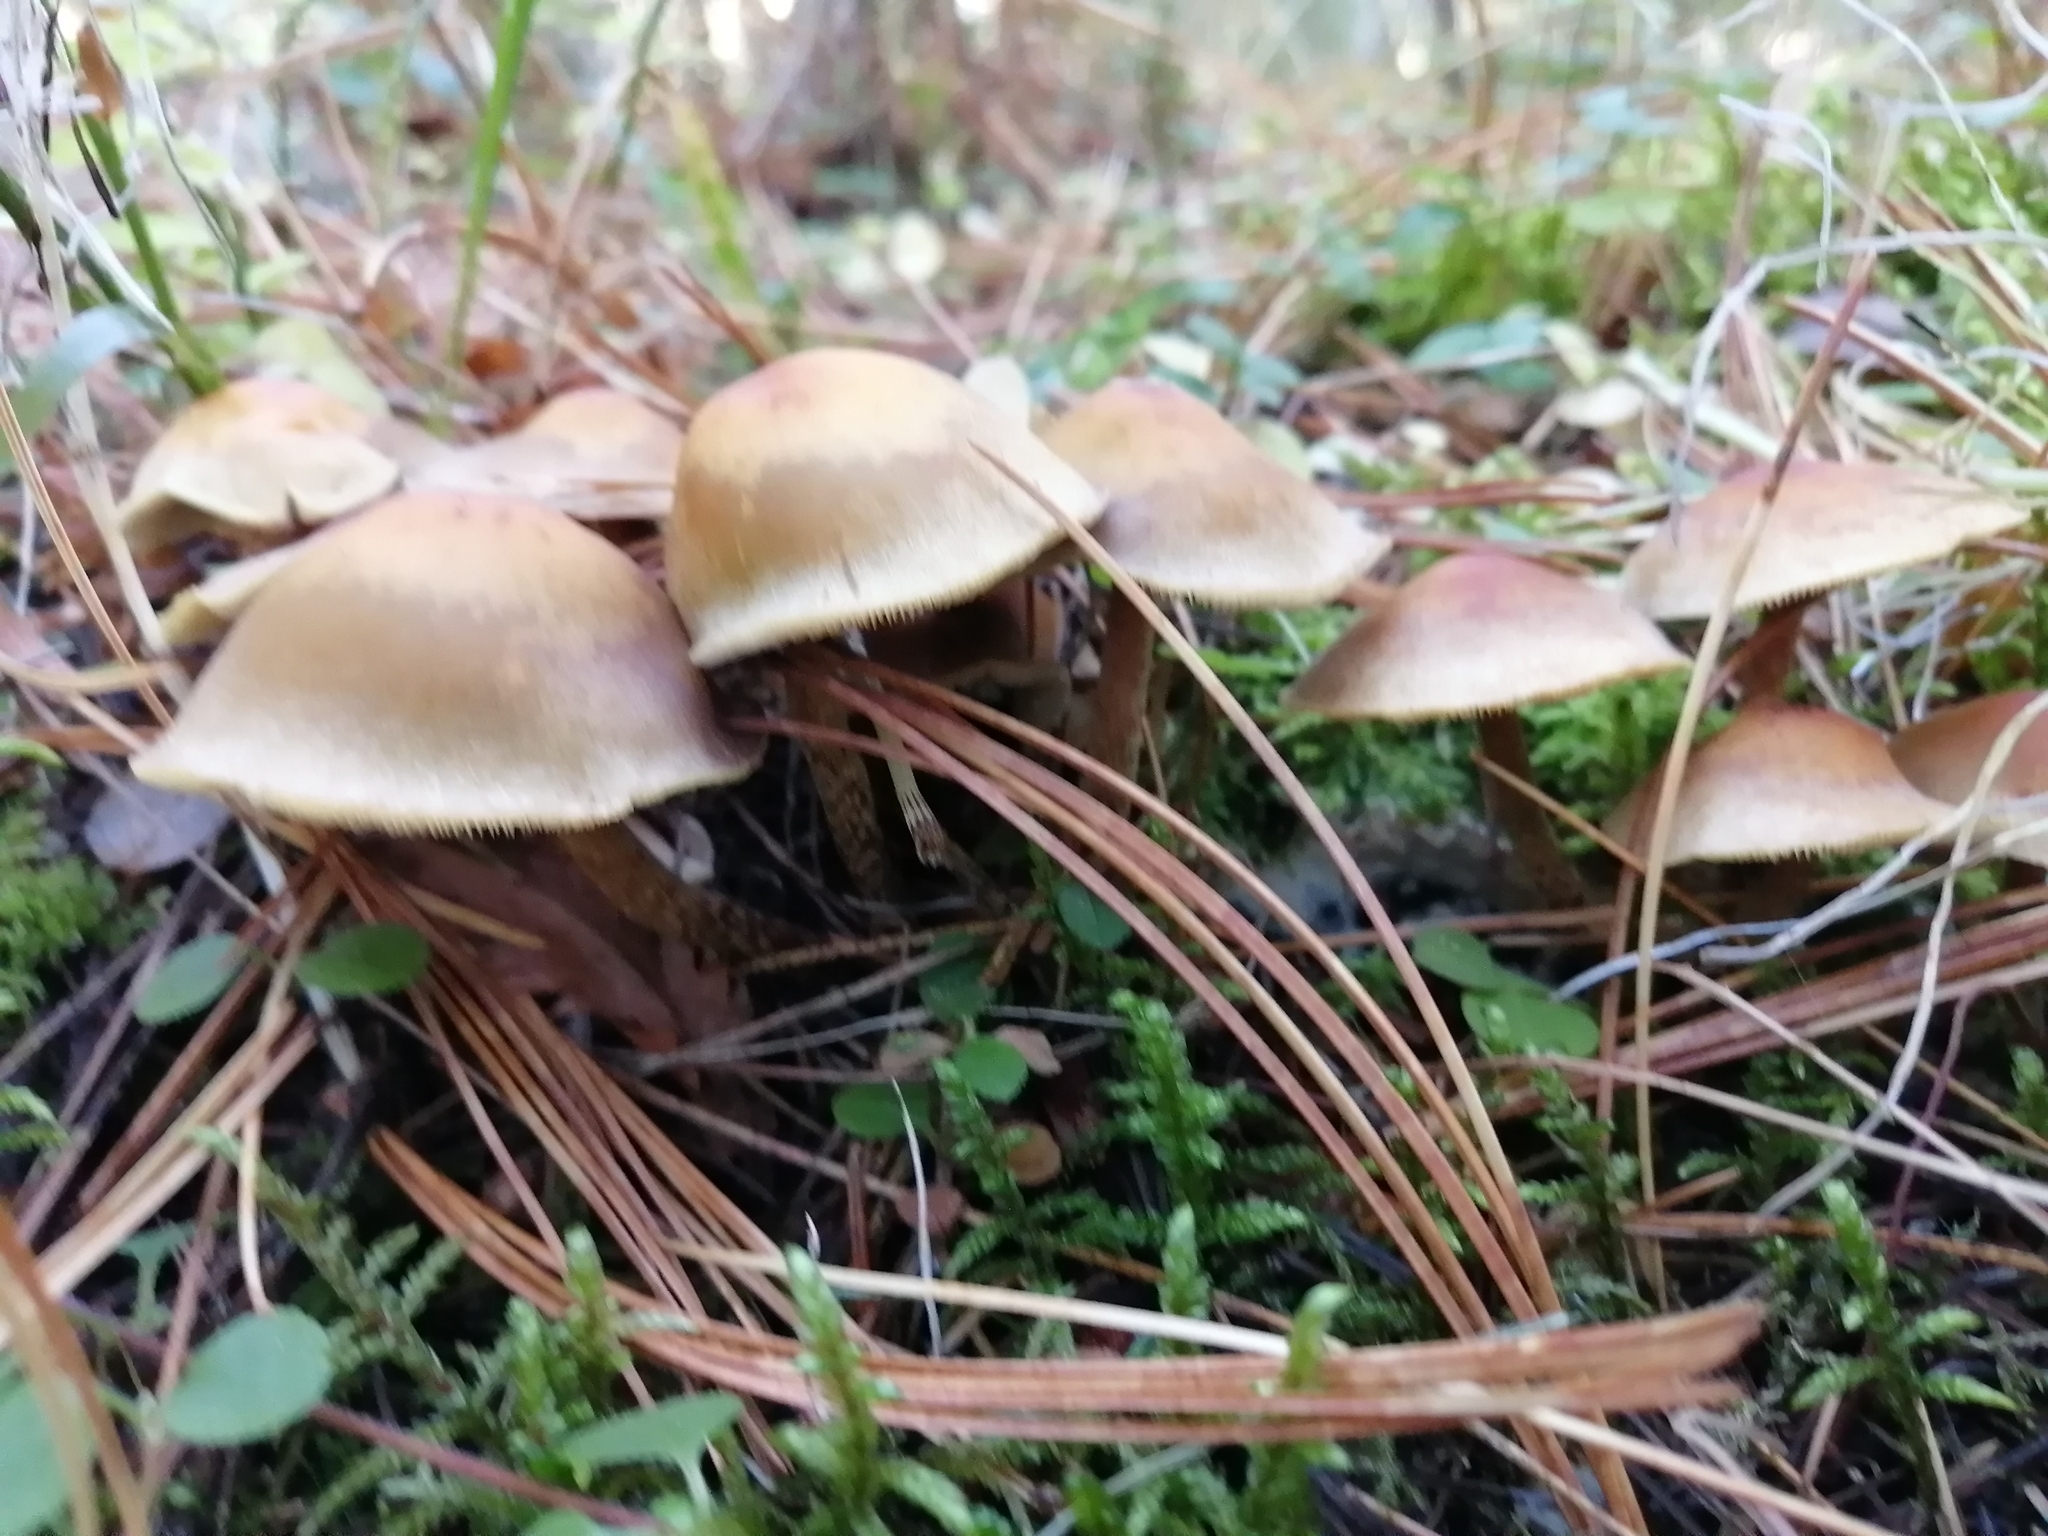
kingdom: Fungi
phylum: Basidiomycota
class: Agaricomycetes
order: Agaricales
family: Strophariaceae
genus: Hypholoma
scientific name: Hypholoma capnoides
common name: Conifer tuft
